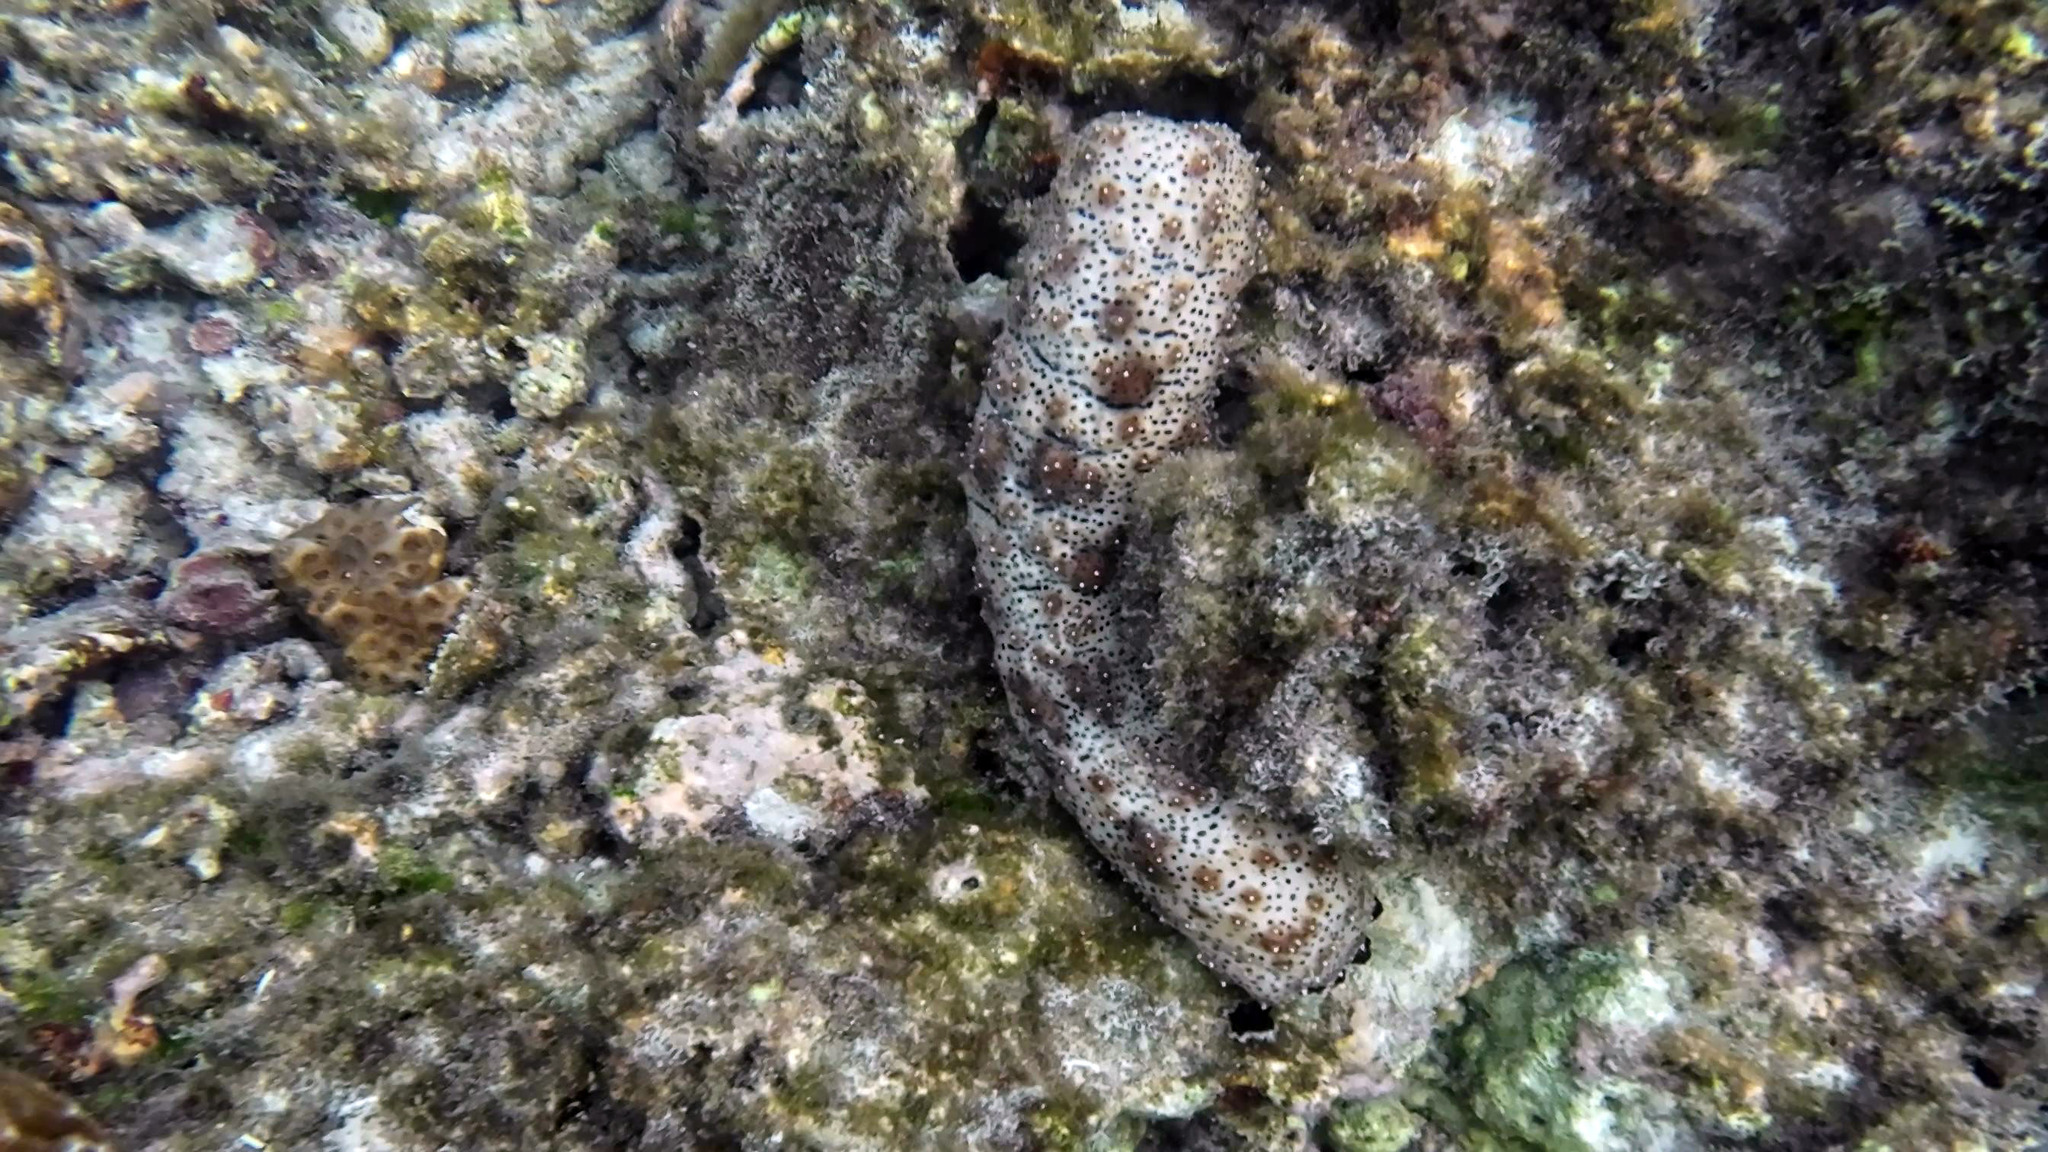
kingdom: Animalia
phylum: Echinodermata
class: Holothuroidea
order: Holothuriida
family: Holothuriidae
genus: Pearsonothuria
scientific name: Pearsonothuria graeffei
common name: Blackspotted sea cucumber
